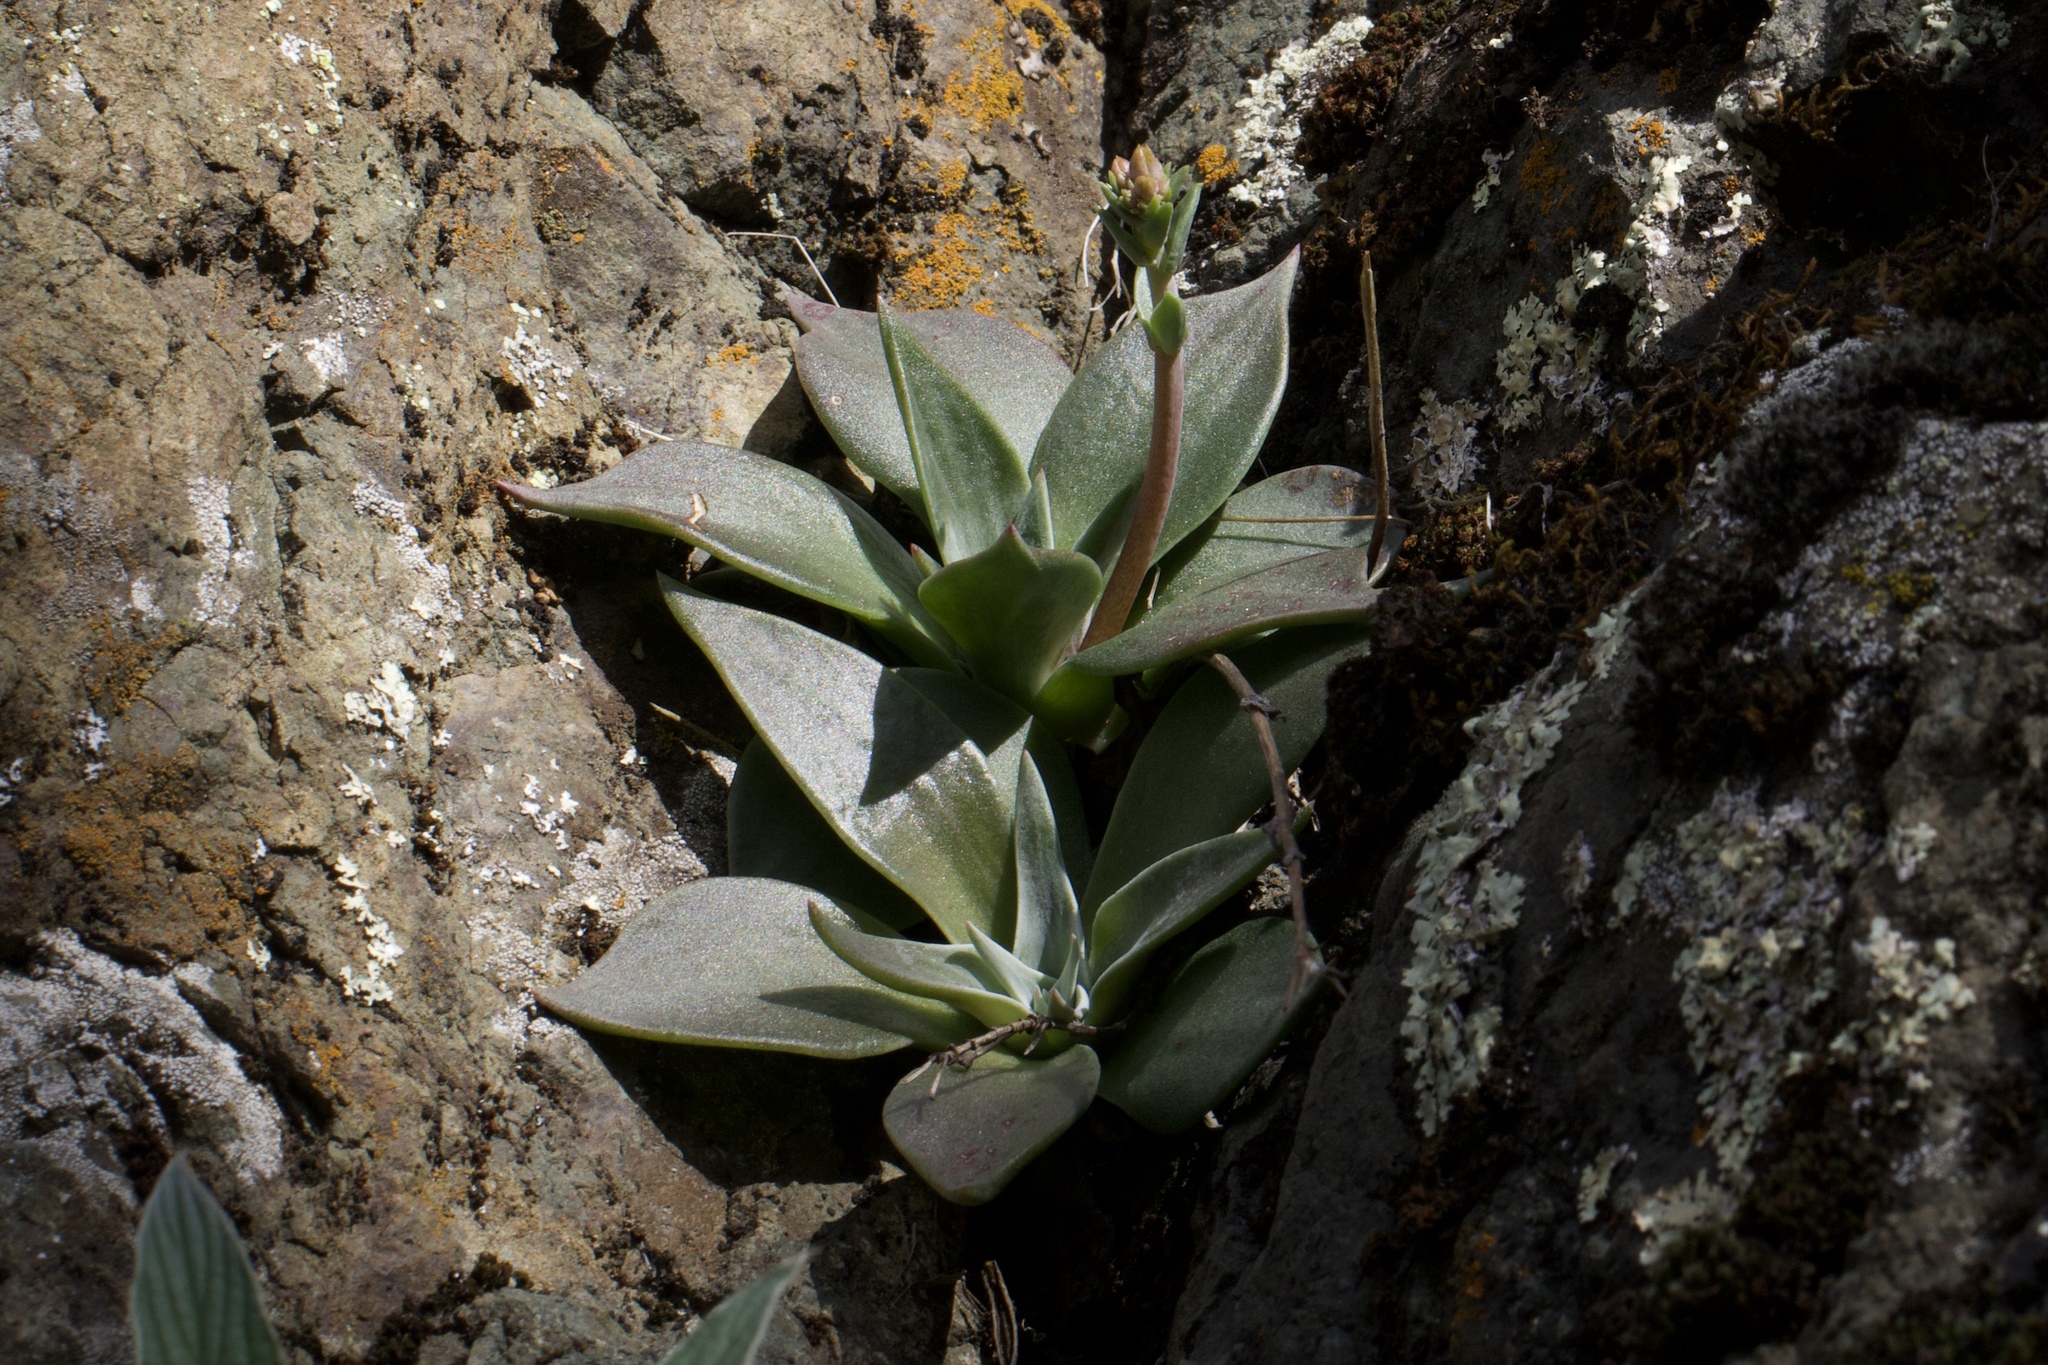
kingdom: Plantae
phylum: Tracheophyta
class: Magnoliopsida
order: Saxifragales
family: Crassulaceae
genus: Dudleya
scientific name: Dudleya cymosa
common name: Canyon dudleya
